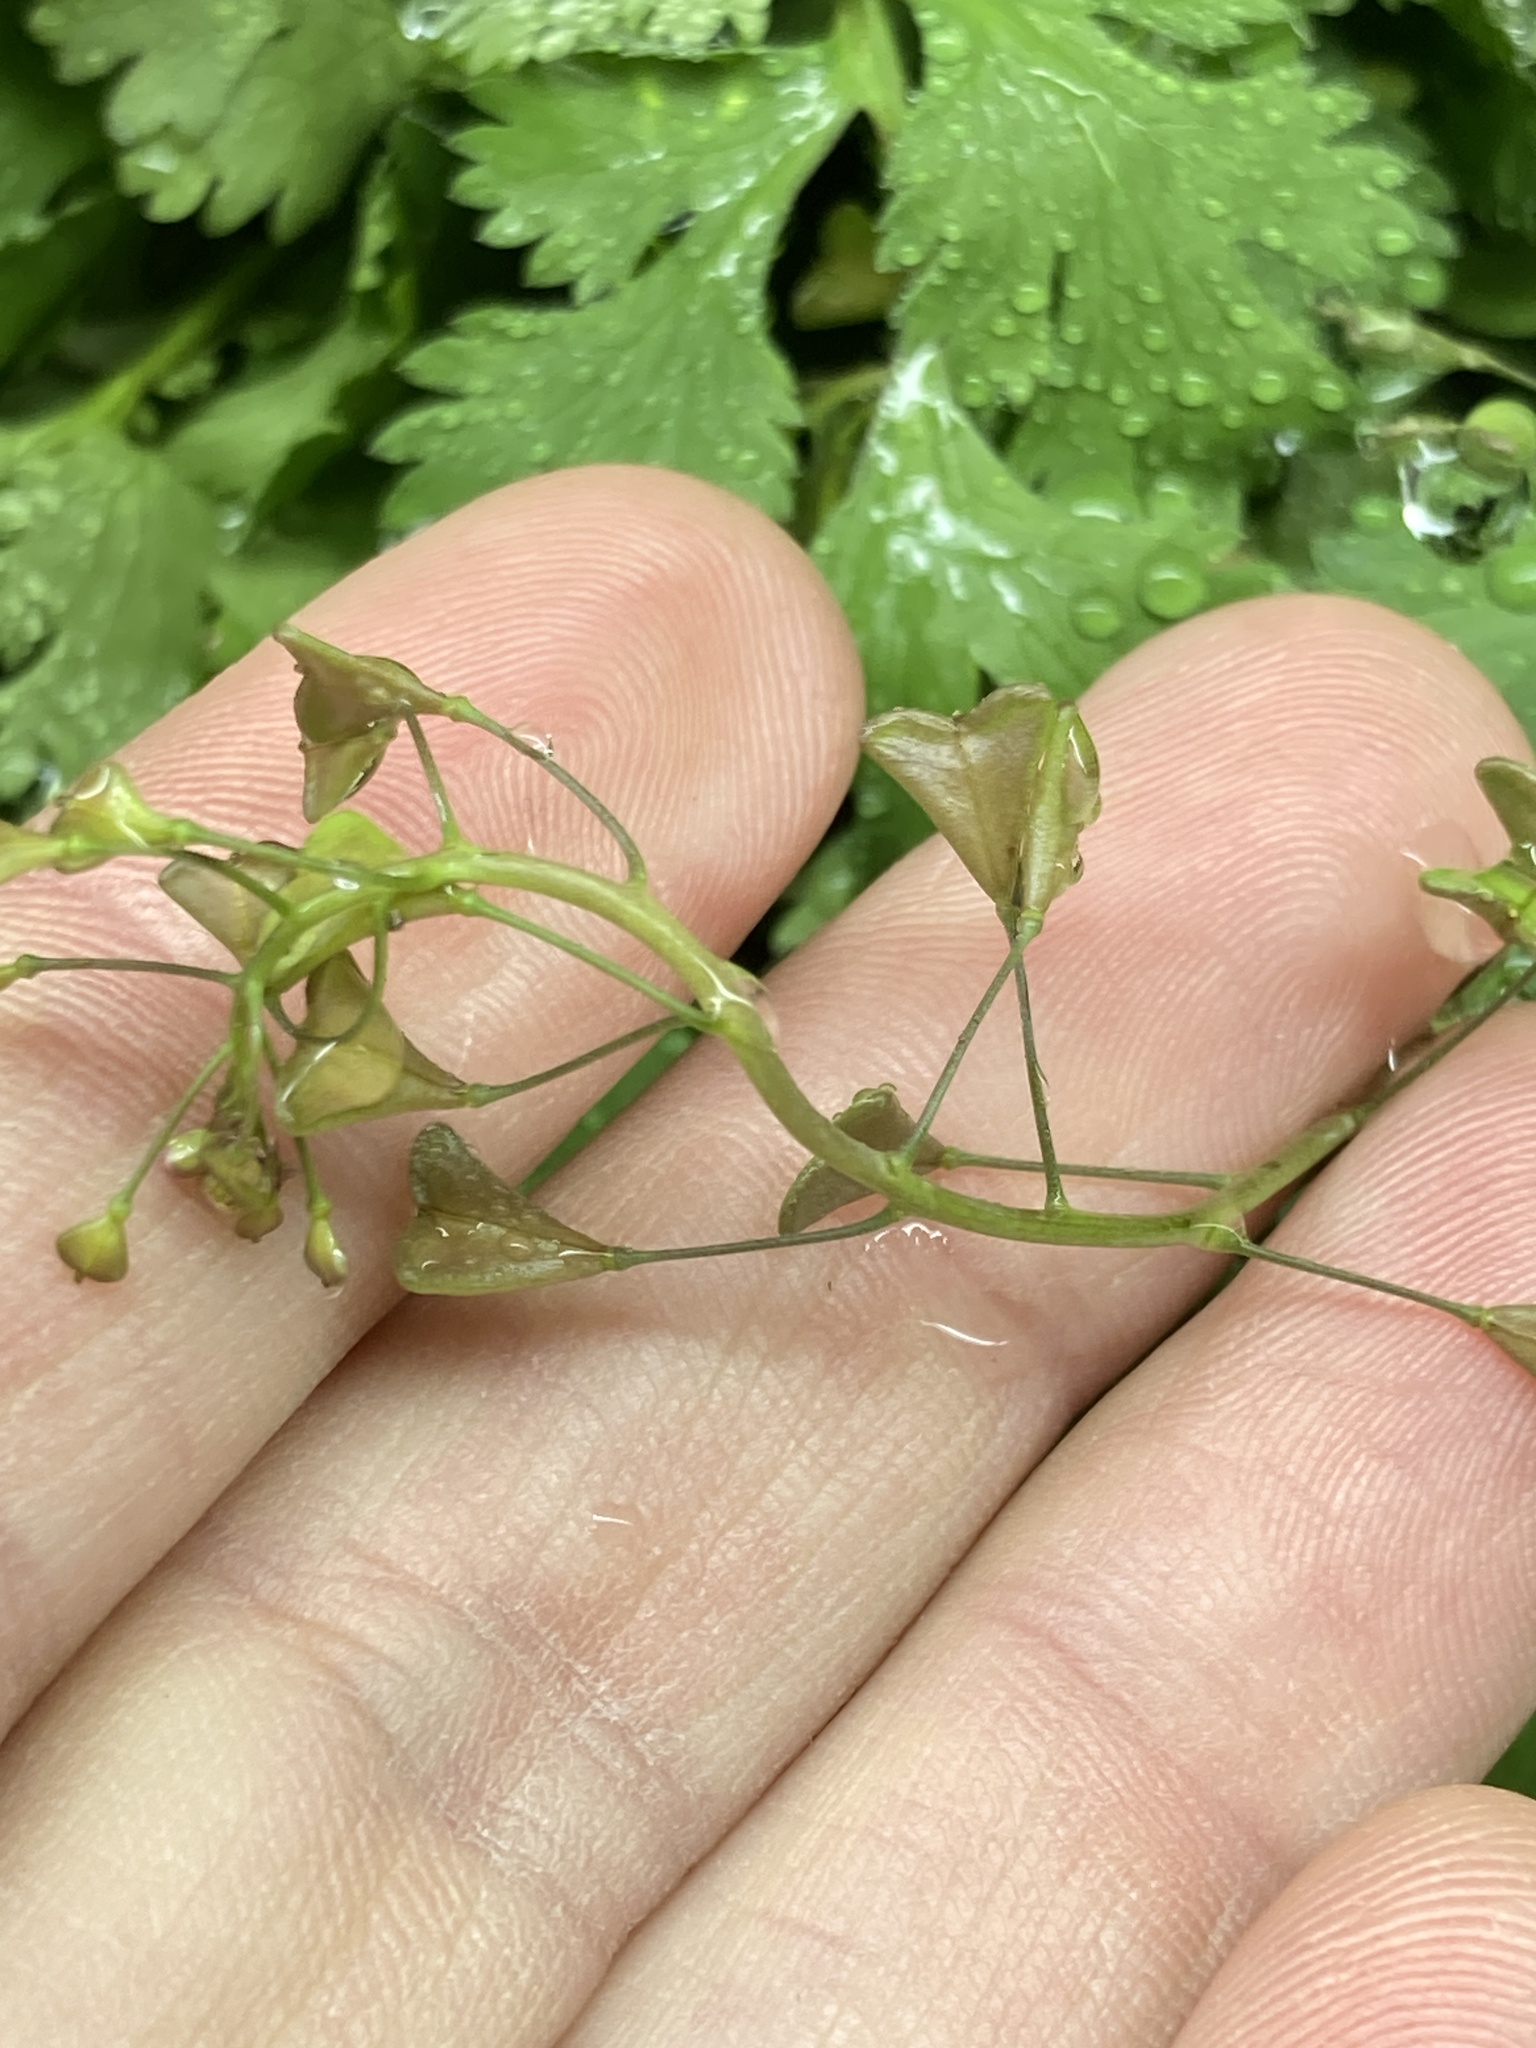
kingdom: Plantae
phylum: Tracheophyta
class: Magnoliopsida
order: Brassicales
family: Brassicaceae
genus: Capsella
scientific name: Capsella bursa-pastoris
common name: Shepherd's purse
